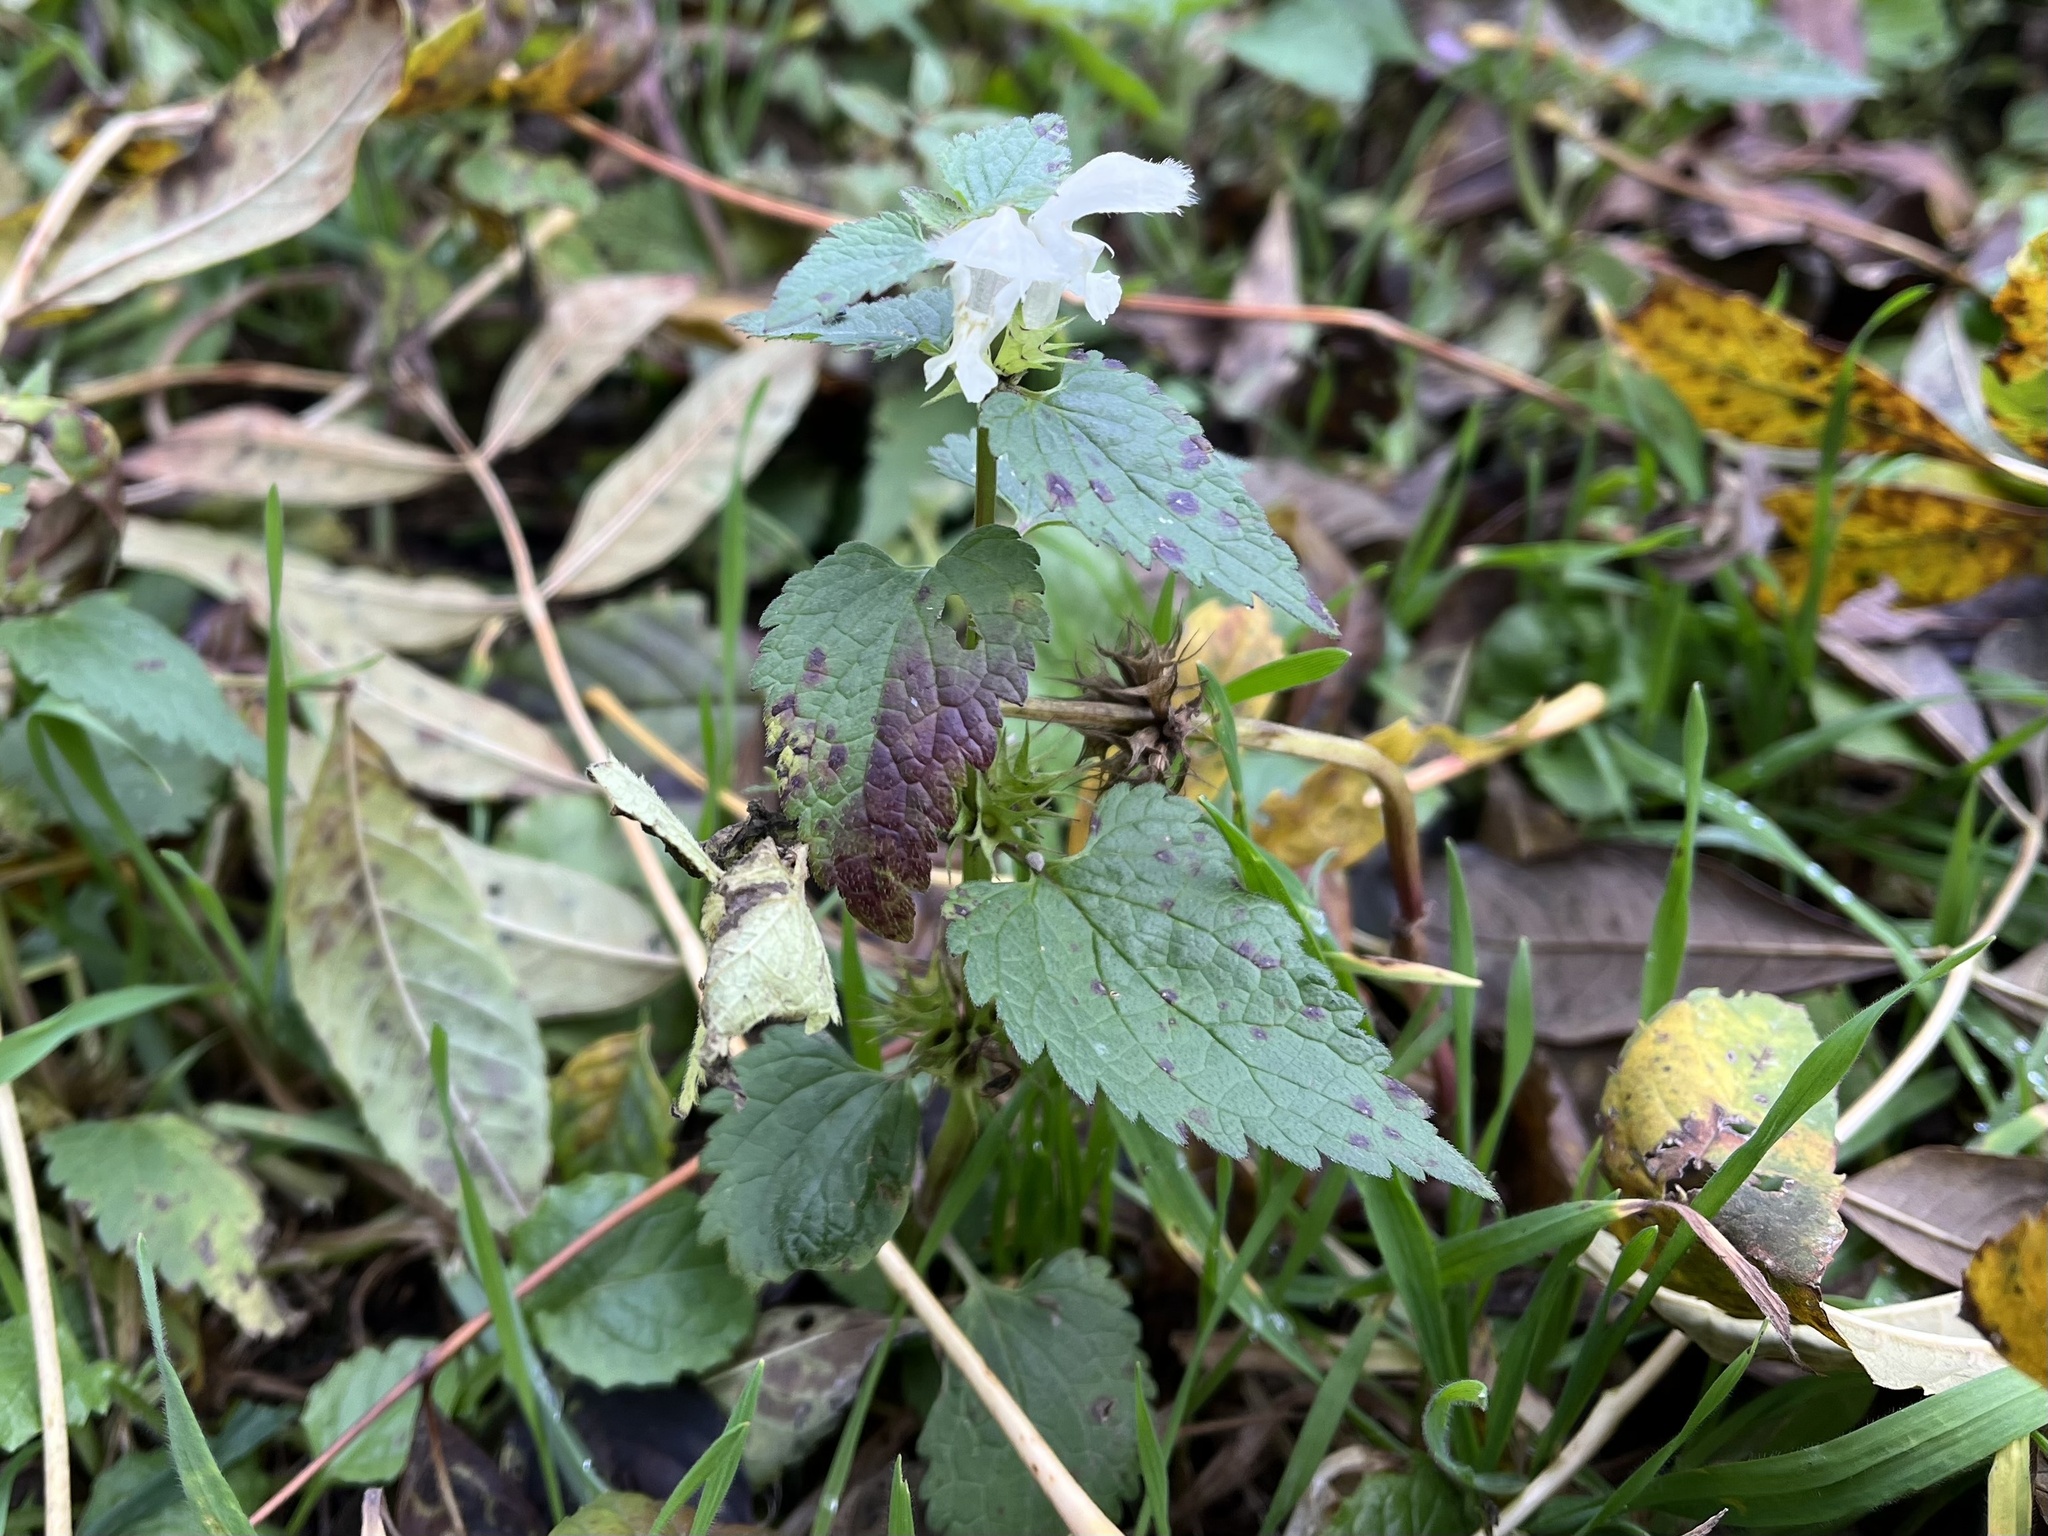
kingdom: Plantae
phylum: Tracheophyta
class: Magnoliopsida
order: Lamiales
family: Lamiaceae
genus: Lamium
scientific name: Lamium album
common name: White dead-nettle
